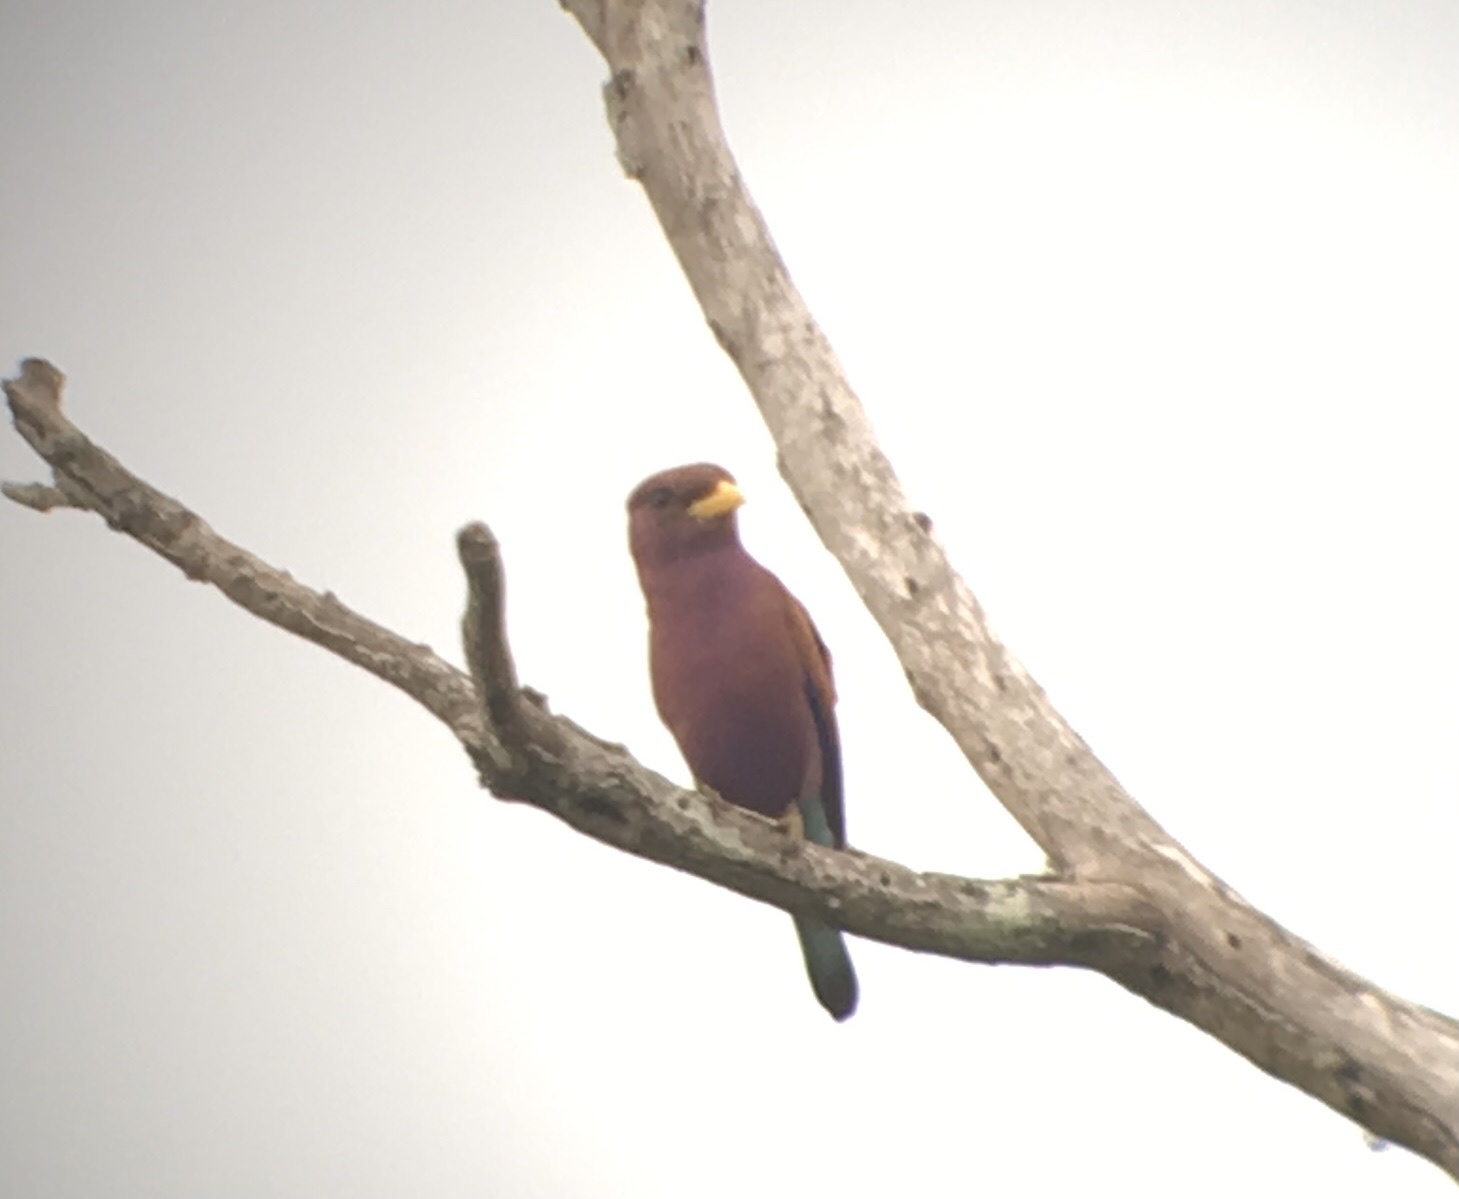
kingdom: Animalia
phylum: Chordata
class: Aves
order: Coraciiformes
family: Coraciidae
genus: Eurystomus
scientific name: Eurystomus glaucurus
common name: Broad-billed roller
